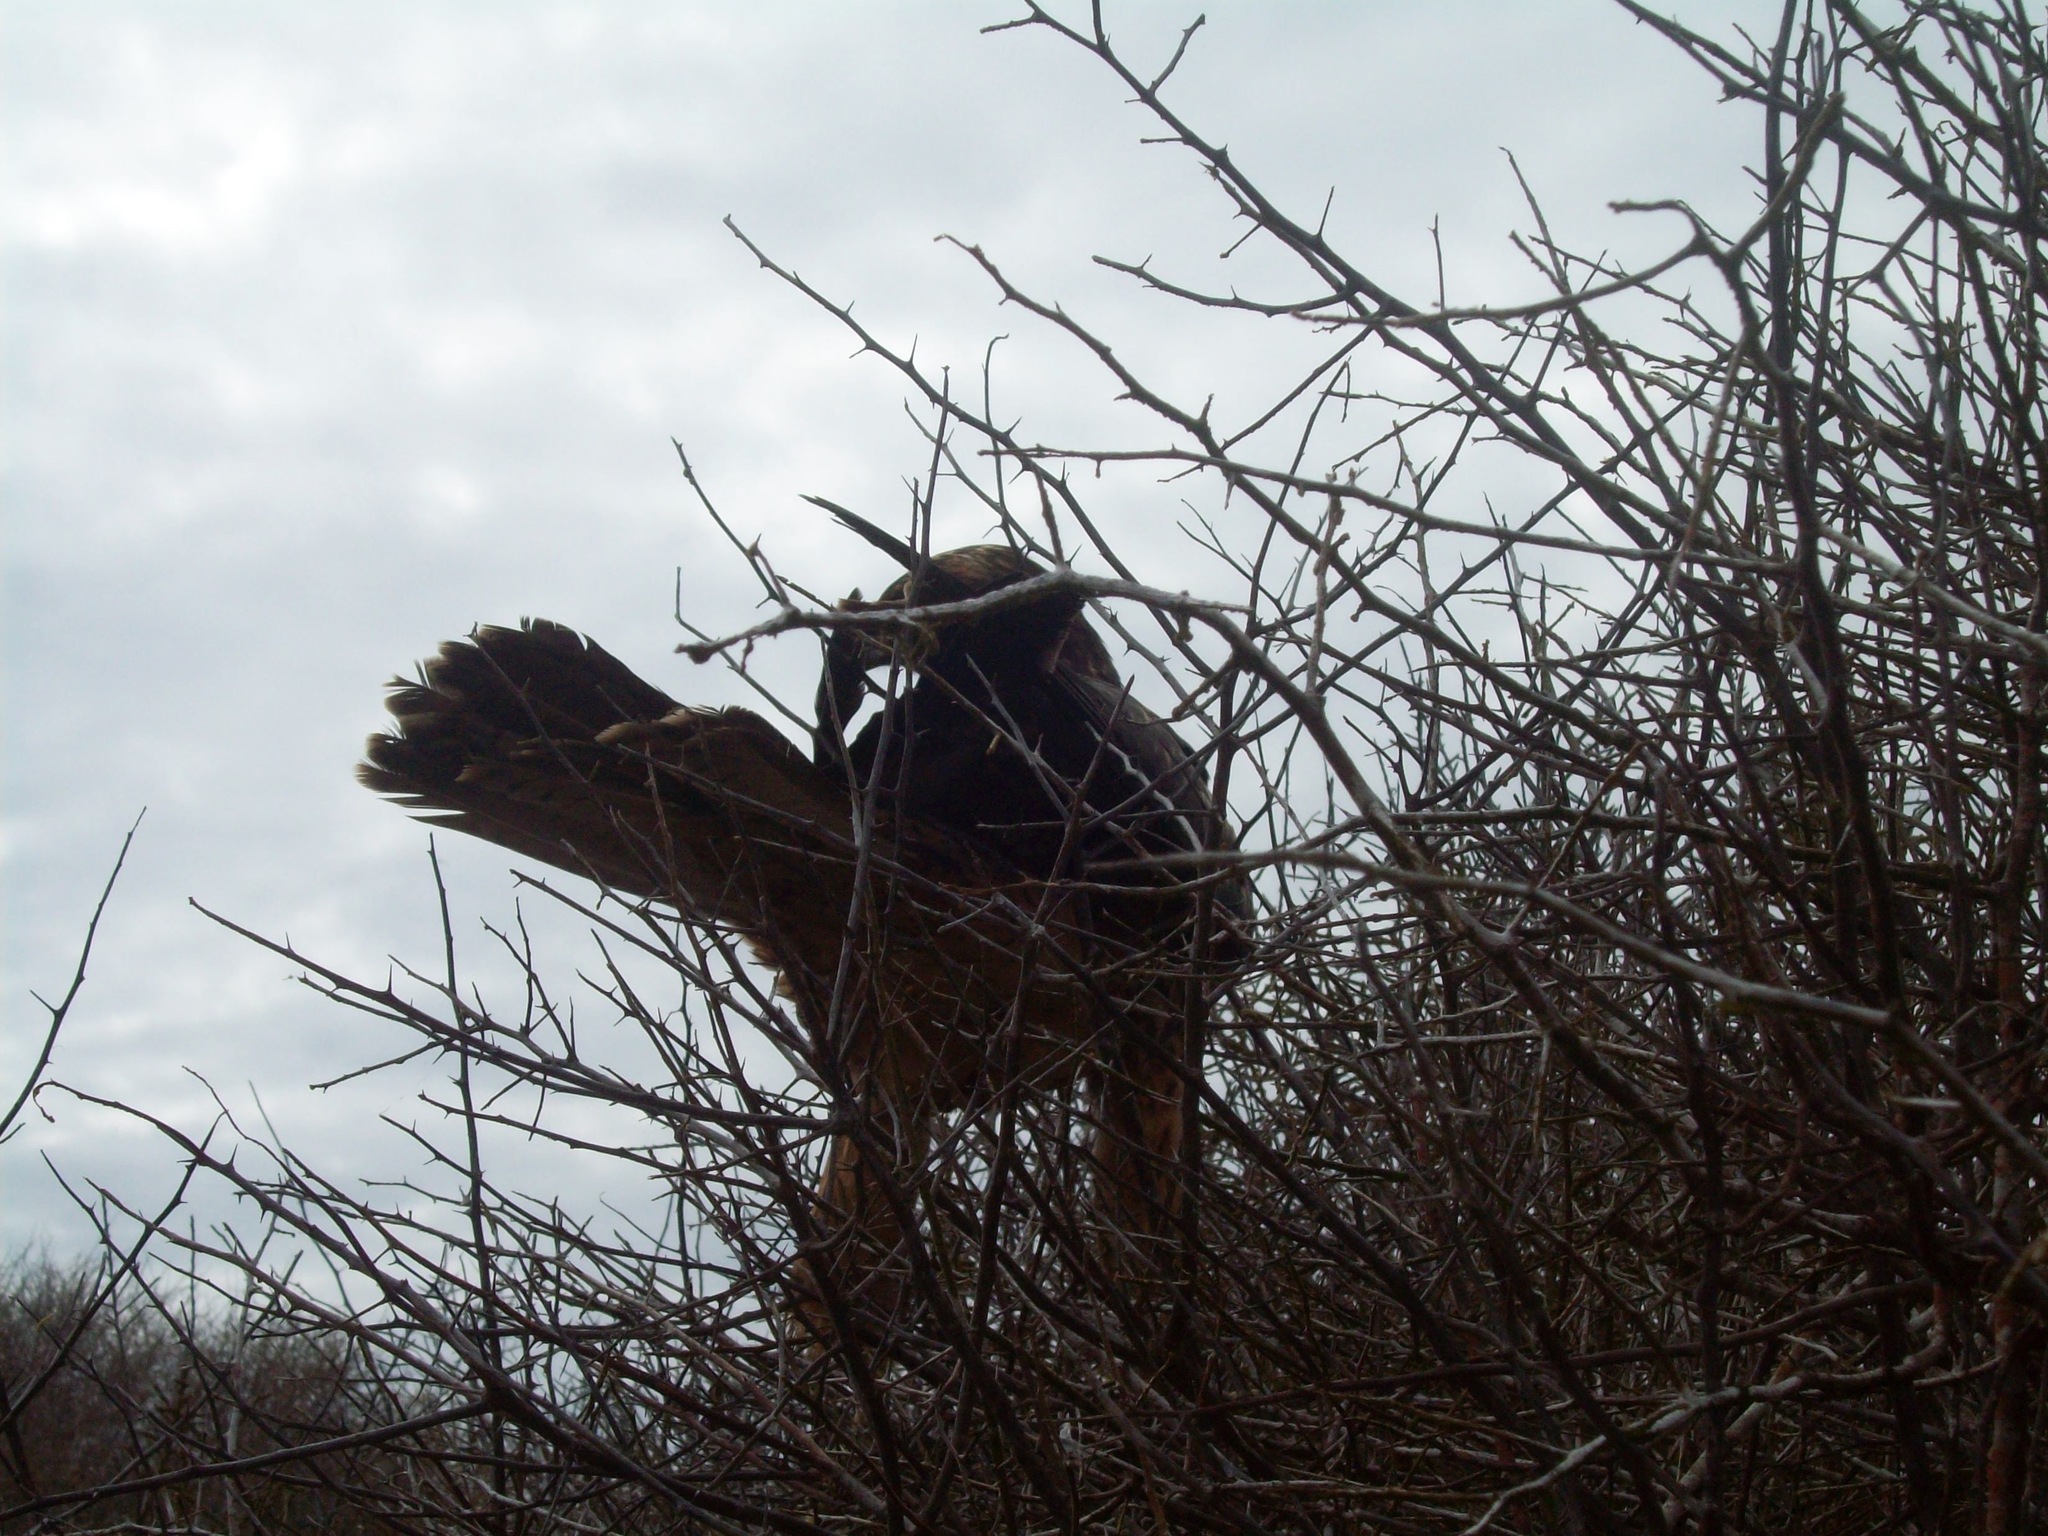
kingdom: Animalia
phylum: Chordata
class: Aves
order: Accipitriformes
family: Accipitridae
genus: Buteo
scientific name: Buteo galapagoensis
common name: Galapagos hawk
